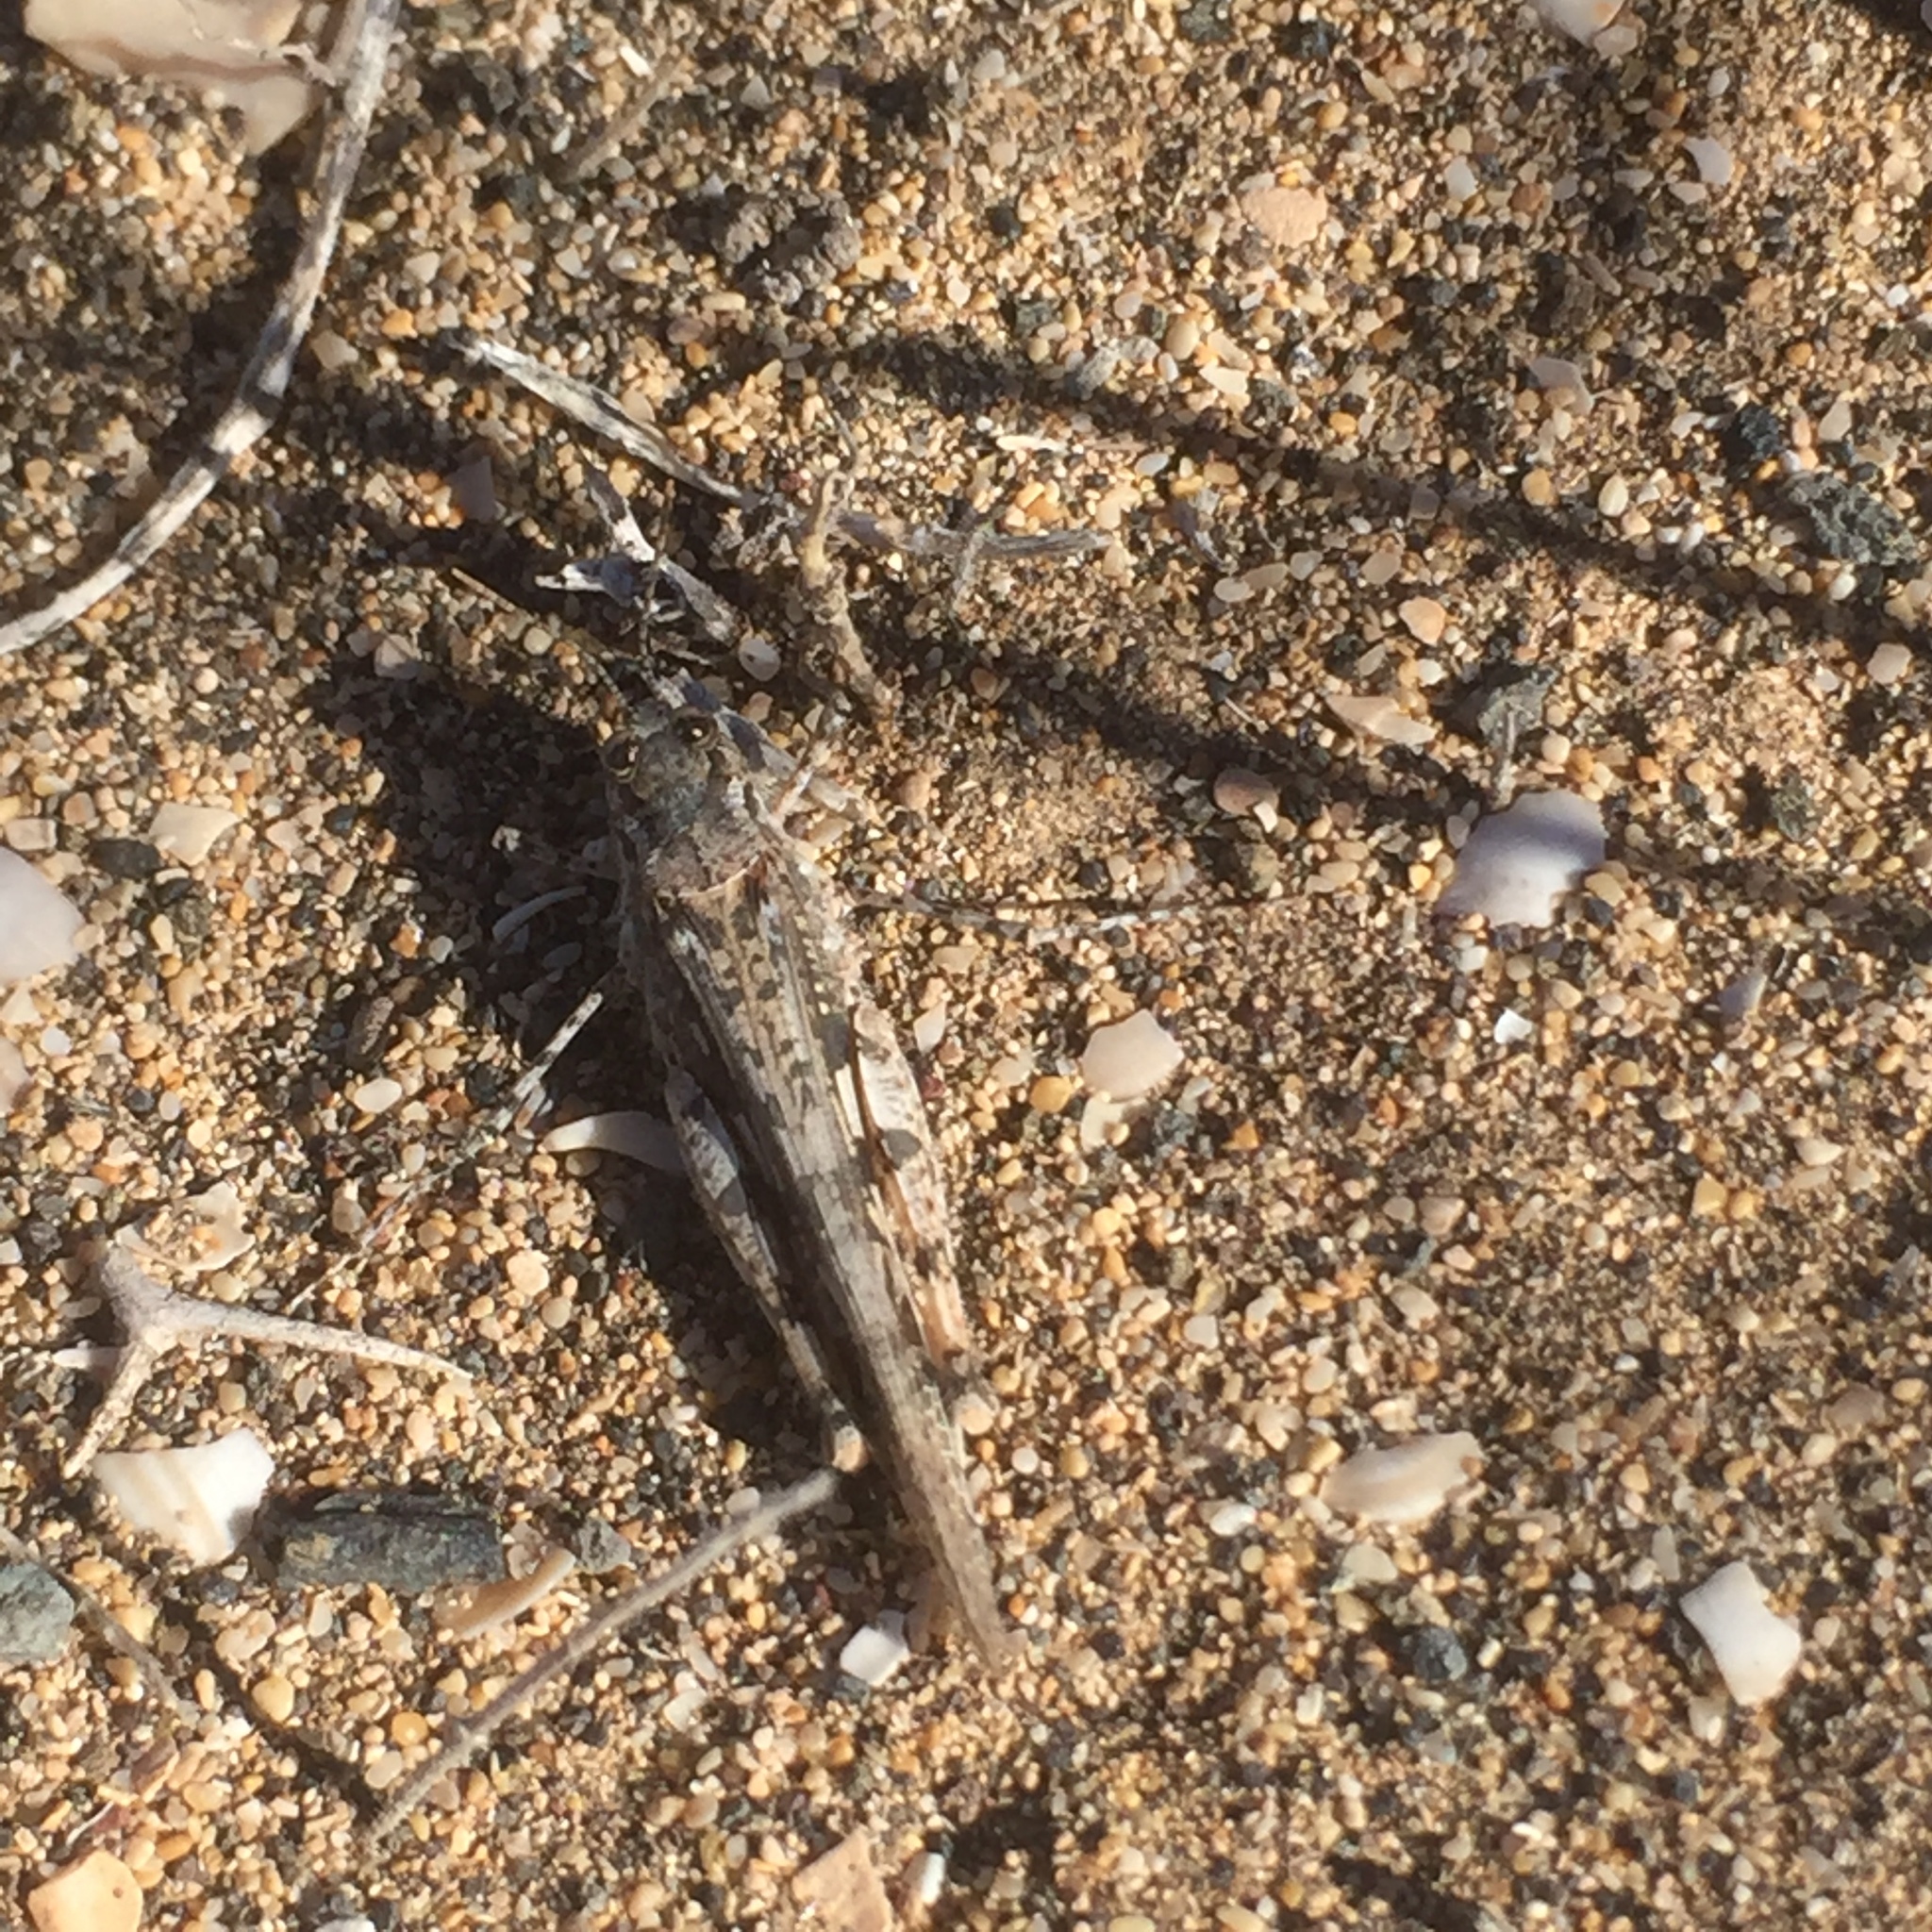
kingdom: Animalia
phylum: Arthropoda
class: Insecta
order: Orthoptera
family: Acrididae
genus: Acrotylus
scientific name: Acrotylus longipes
